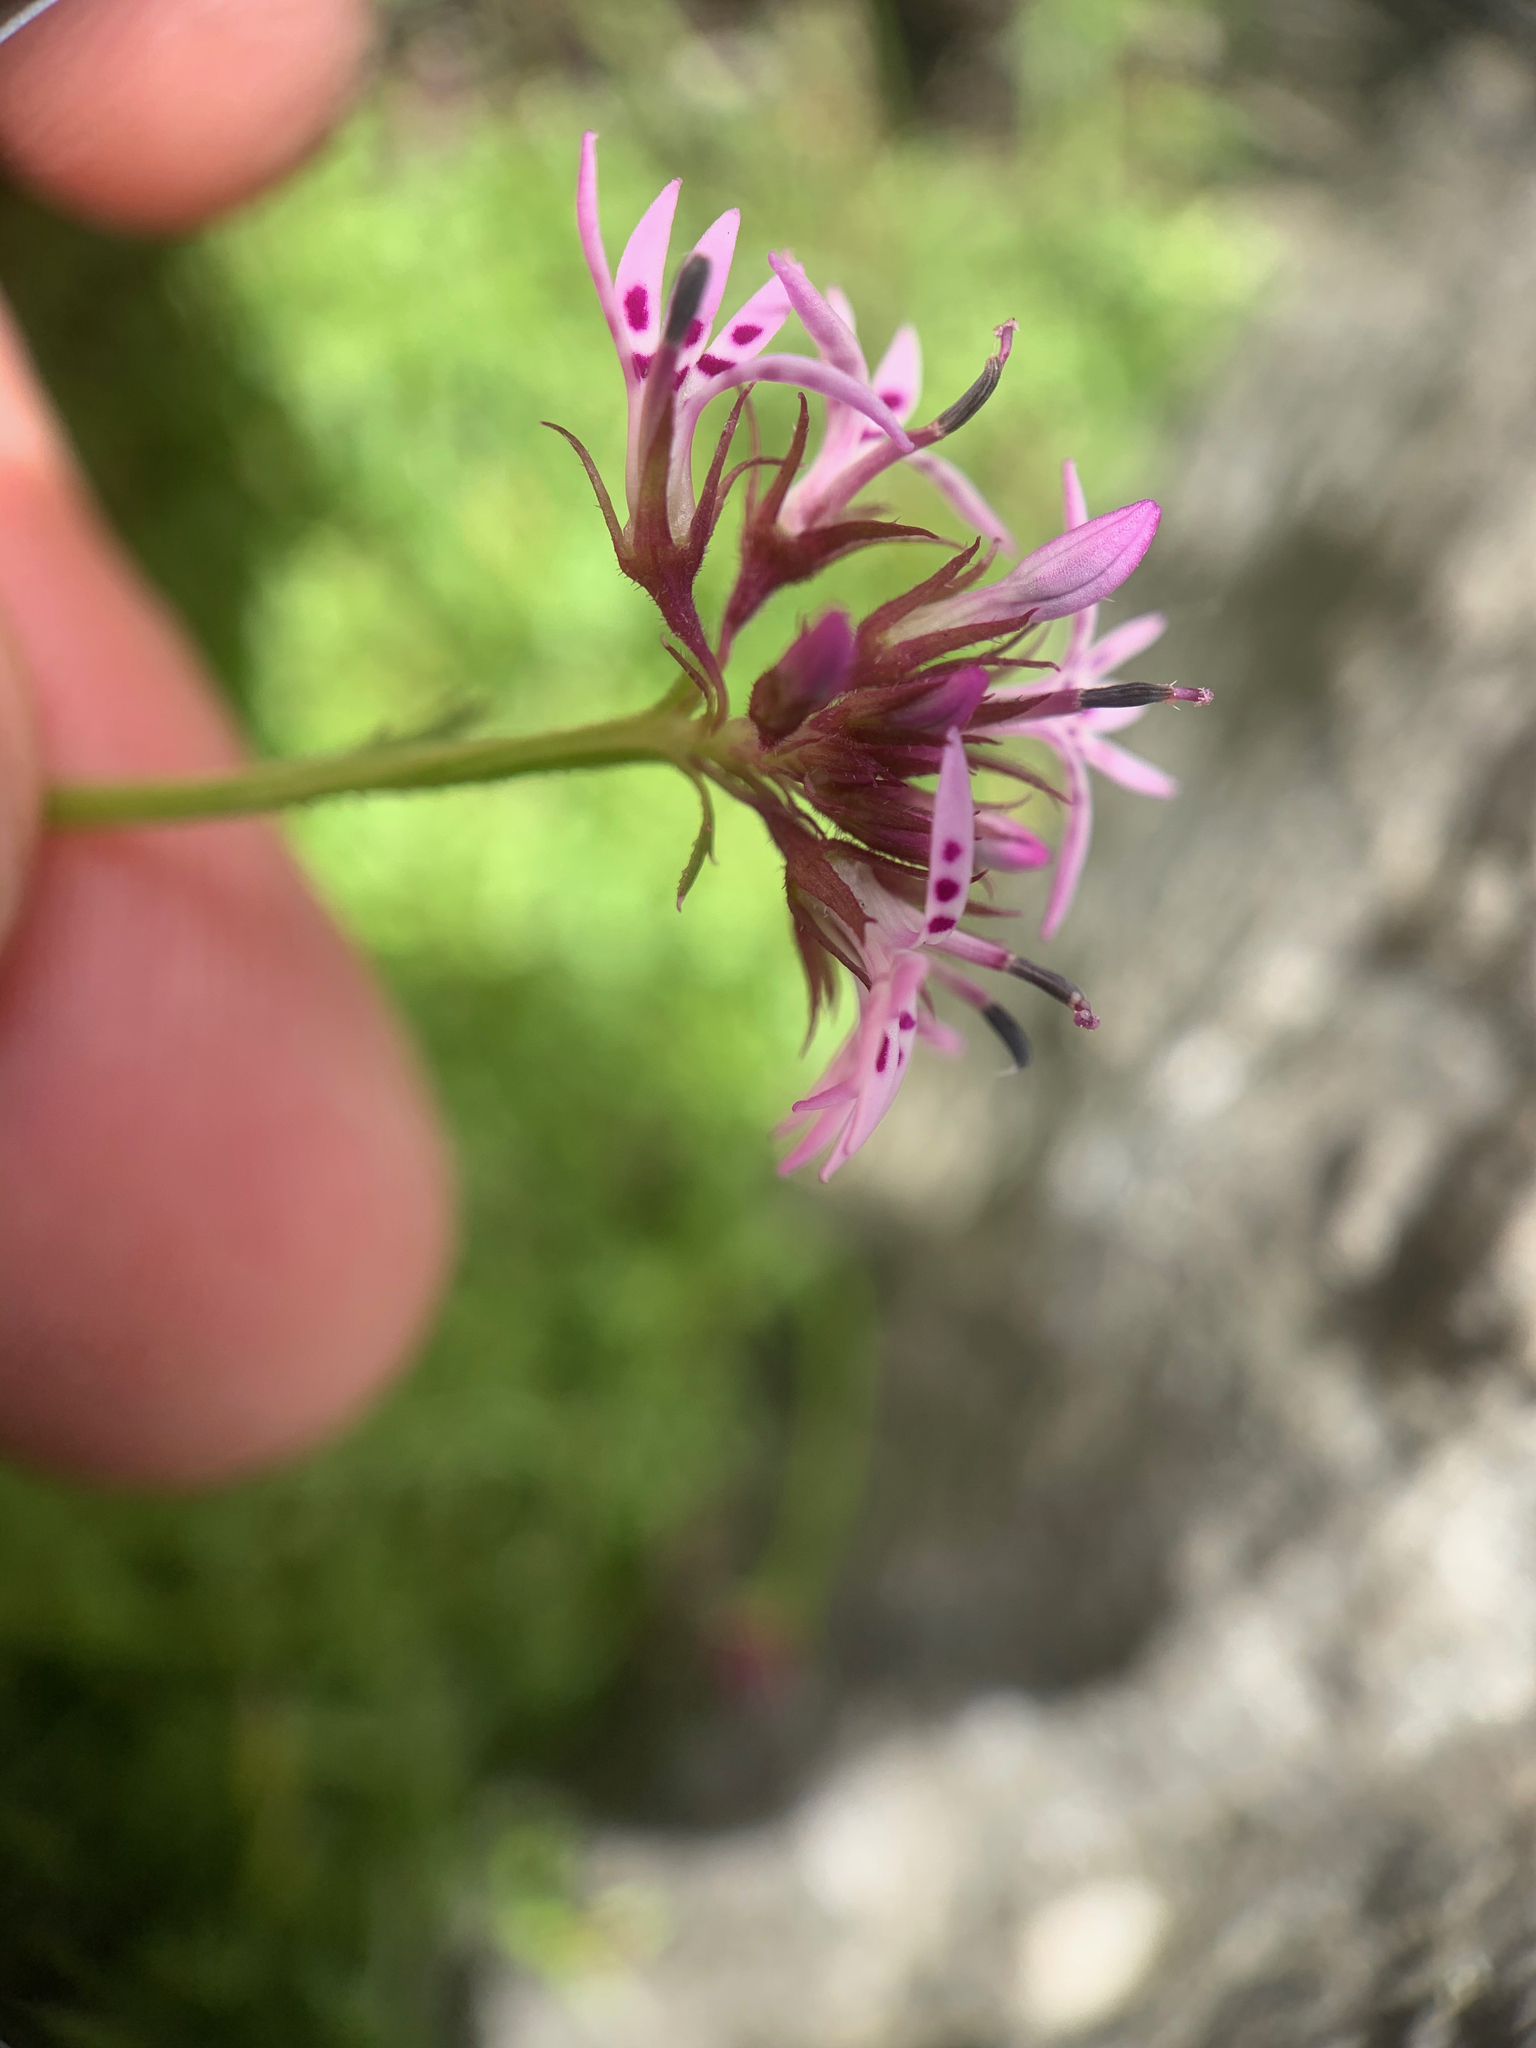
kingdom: Plantae
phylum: Tracheophyta
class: Magnoliopsida
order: Asterales
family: Campanulaceae
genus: Lobelia
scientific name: Lobelia jasionoides
